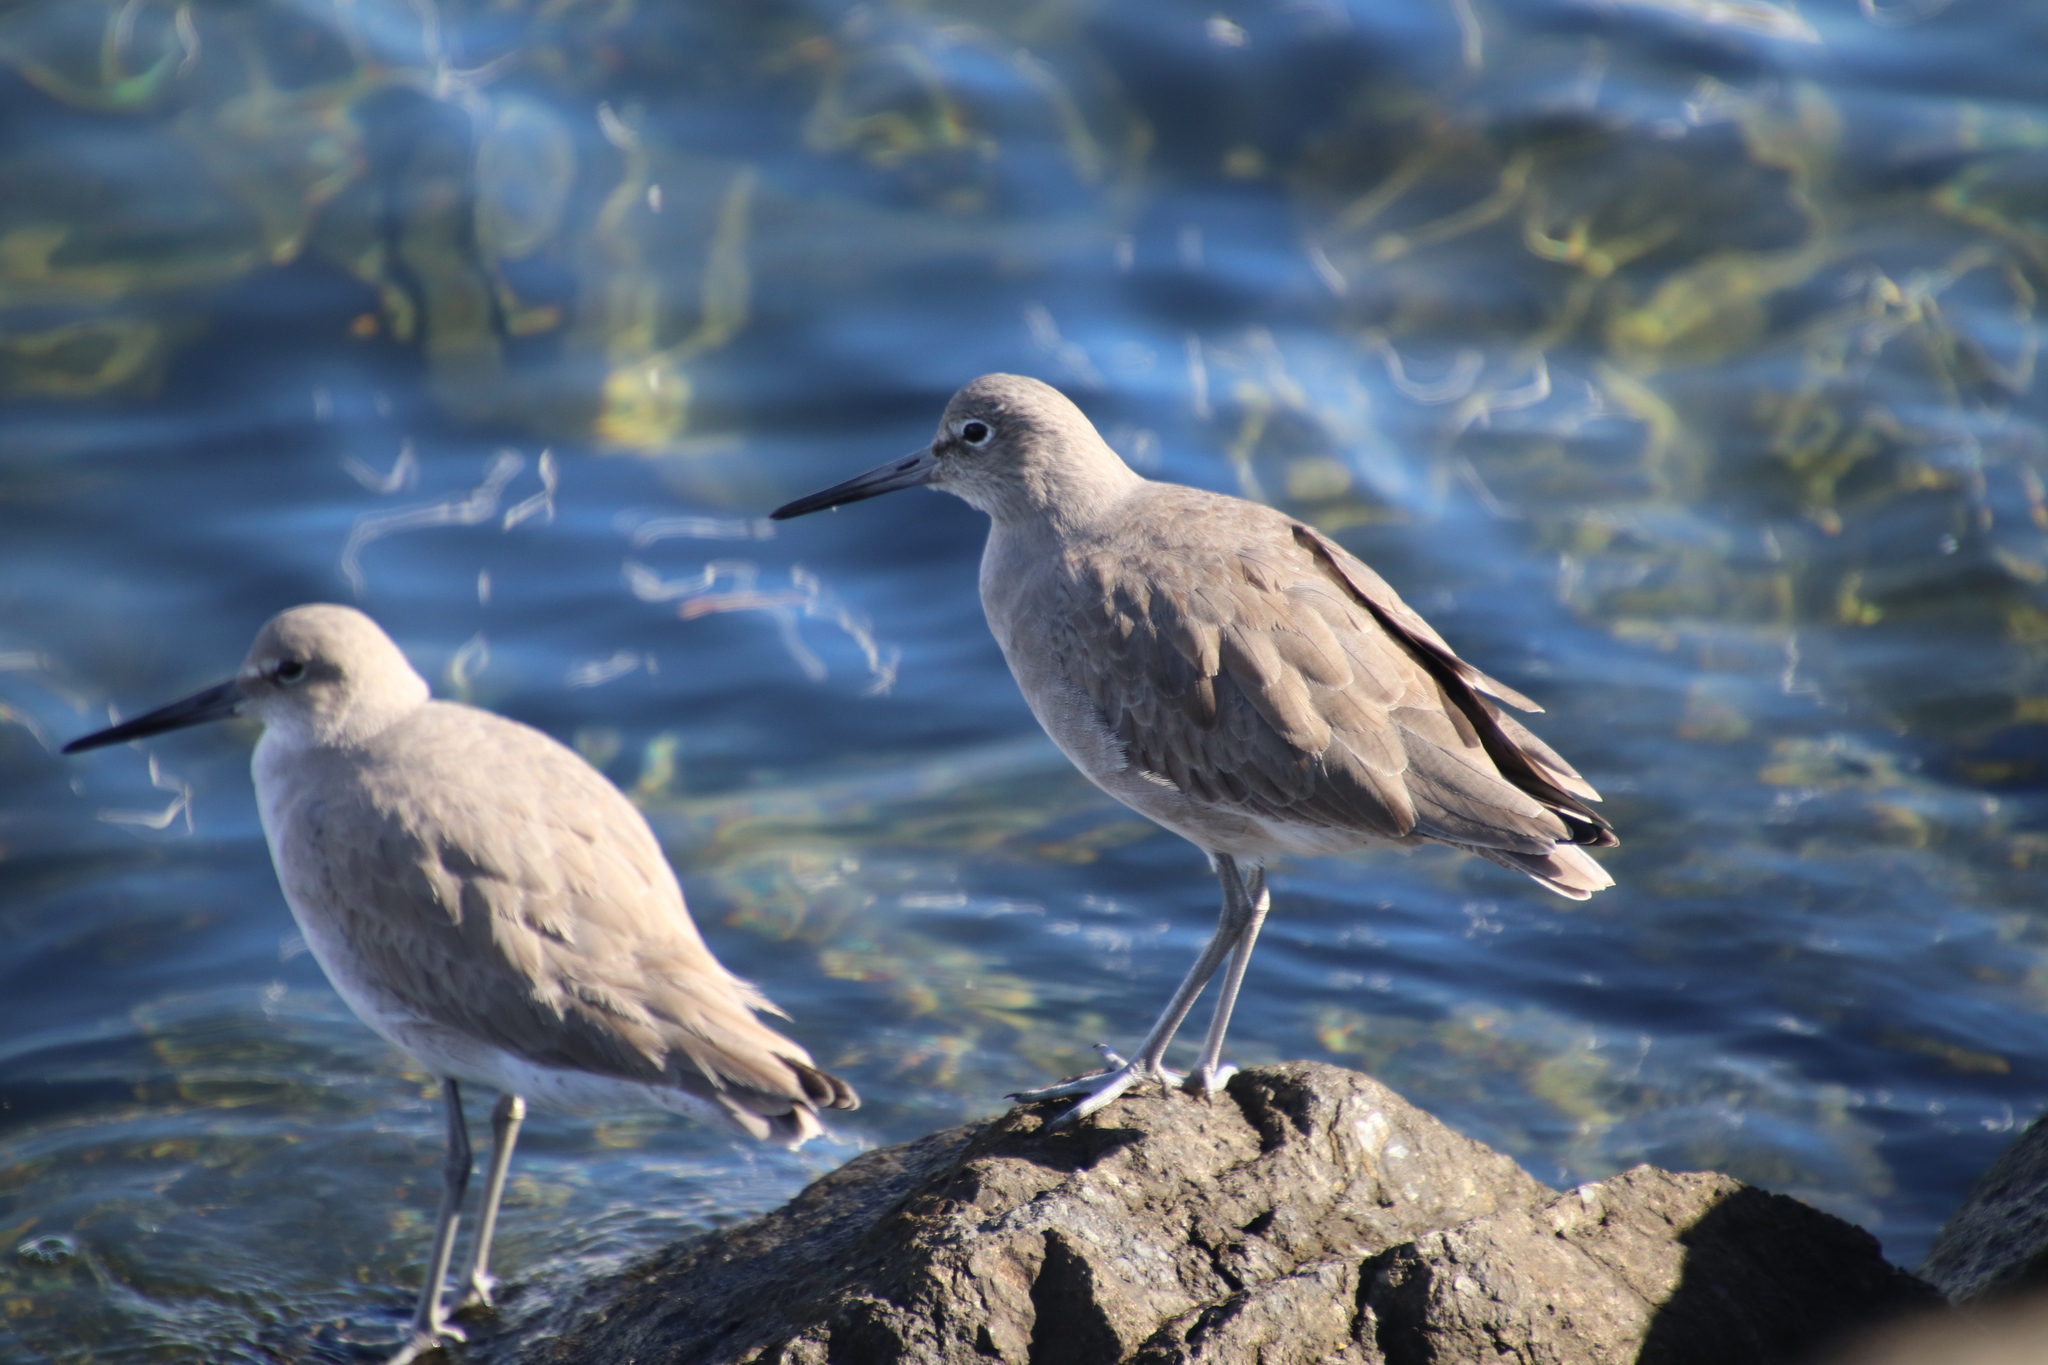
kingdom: Animalia
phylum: Chordata
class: Aves
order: Charadriiformes
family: Scolopacidae
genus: Tringa
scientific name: Tringa semipalmata
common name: Willet
